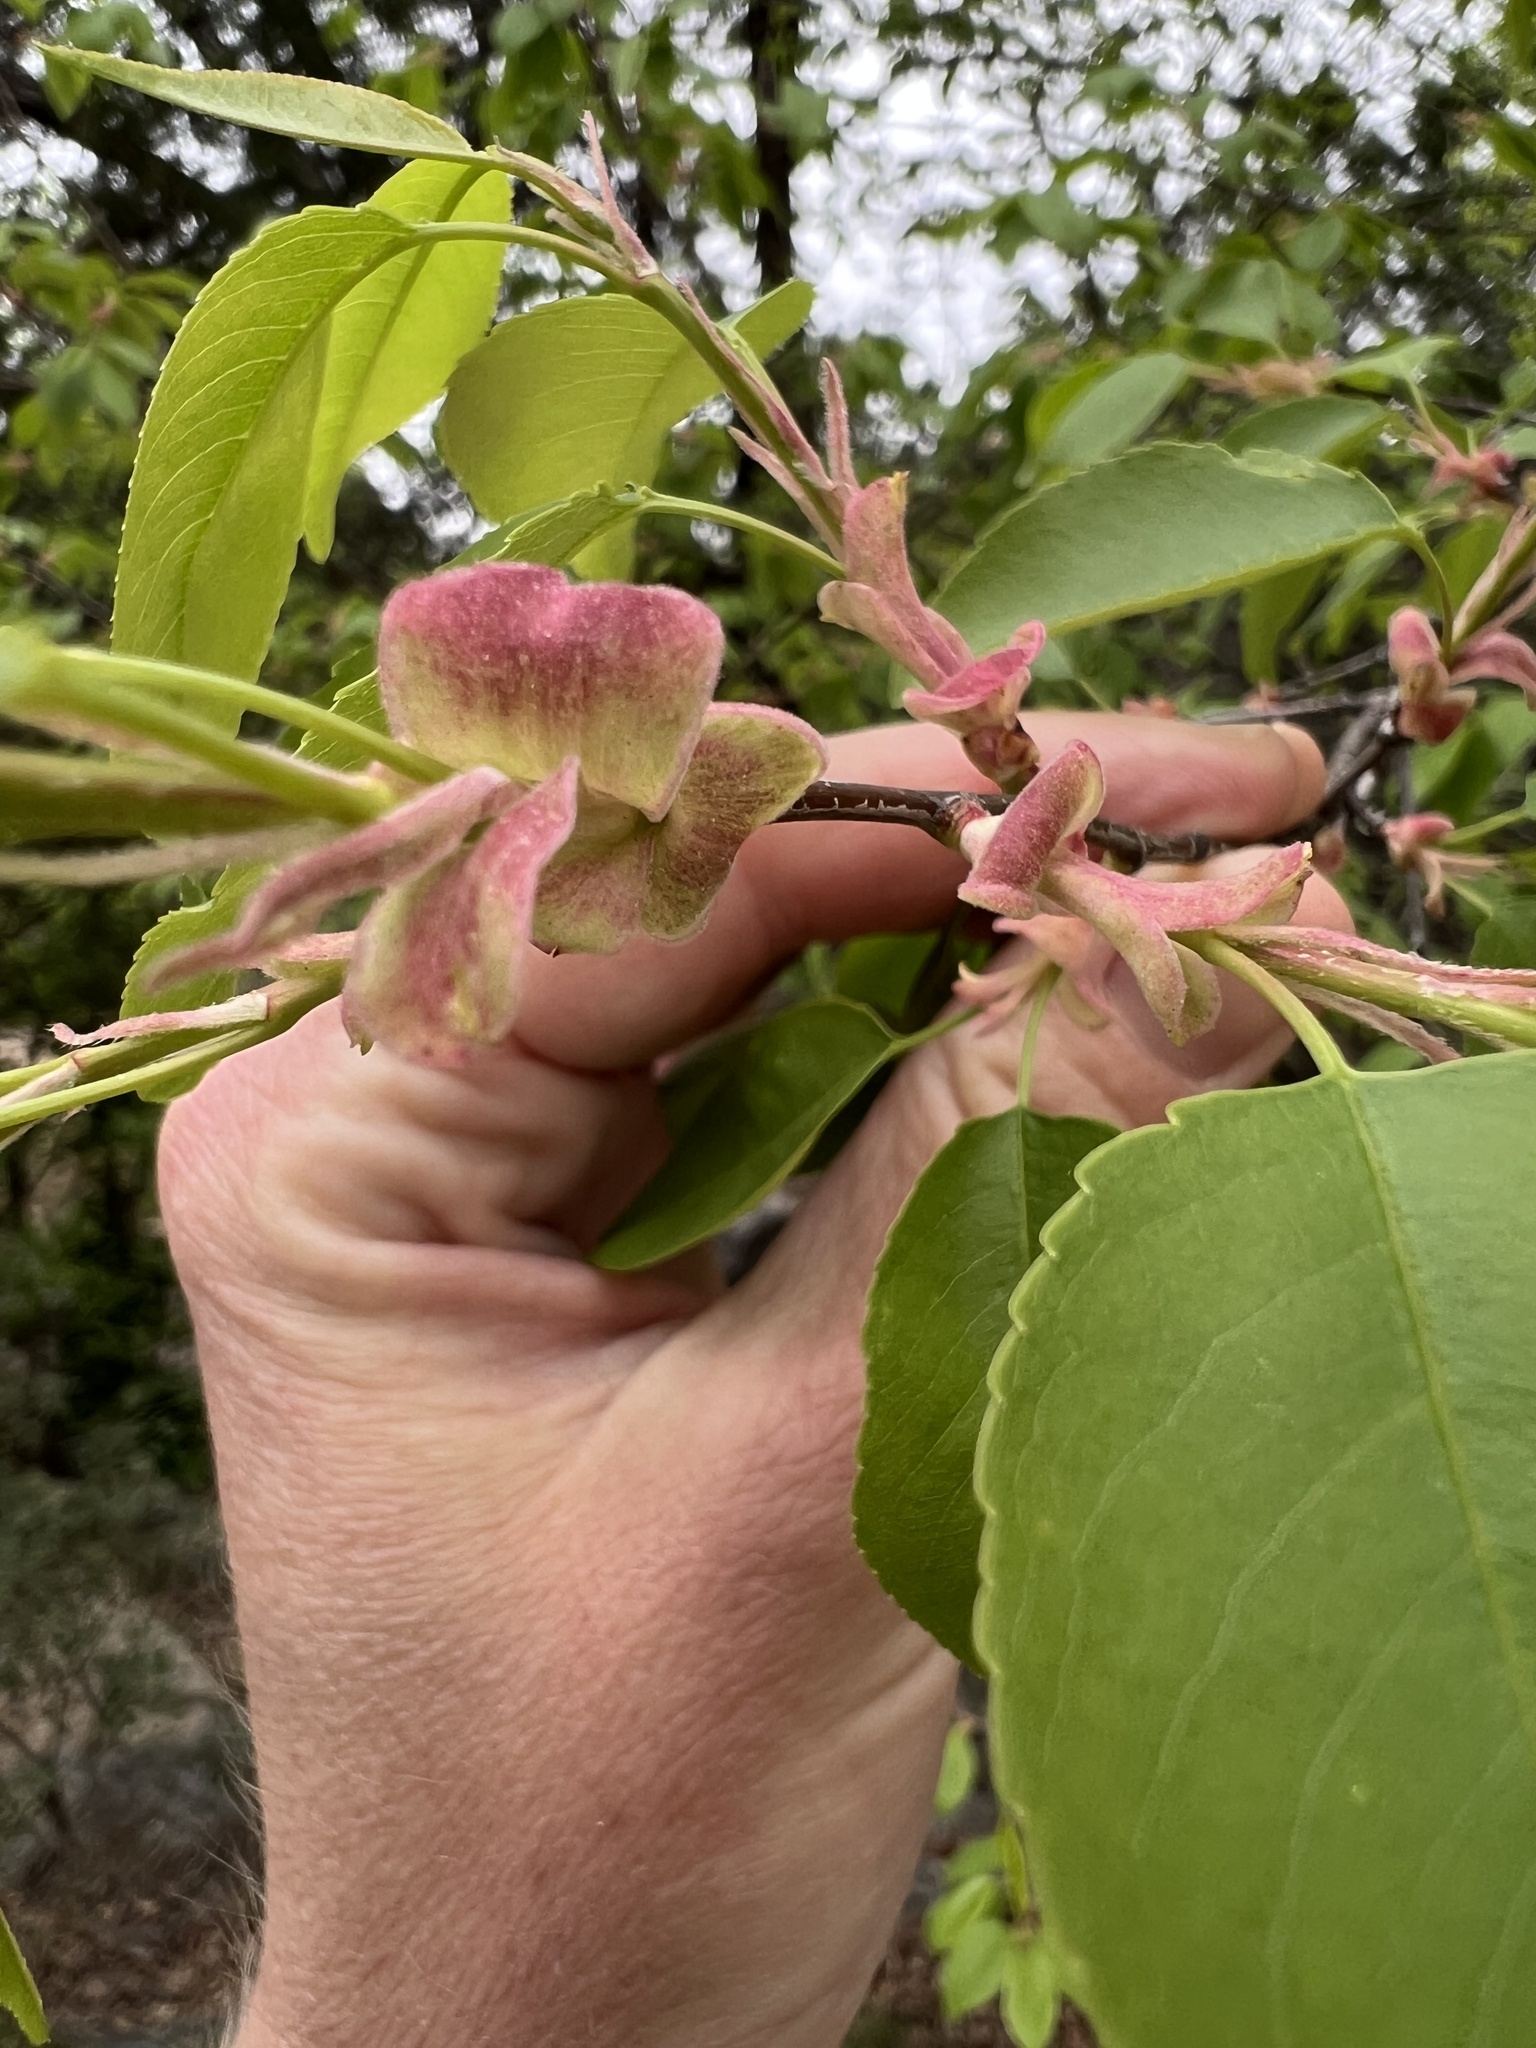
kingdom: Plantae
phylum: Tracheophyta
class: Magnoliopsida
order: Rosales
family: Rosaceae
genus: Prunus
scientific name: Prunus serotina
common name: Black cherry
